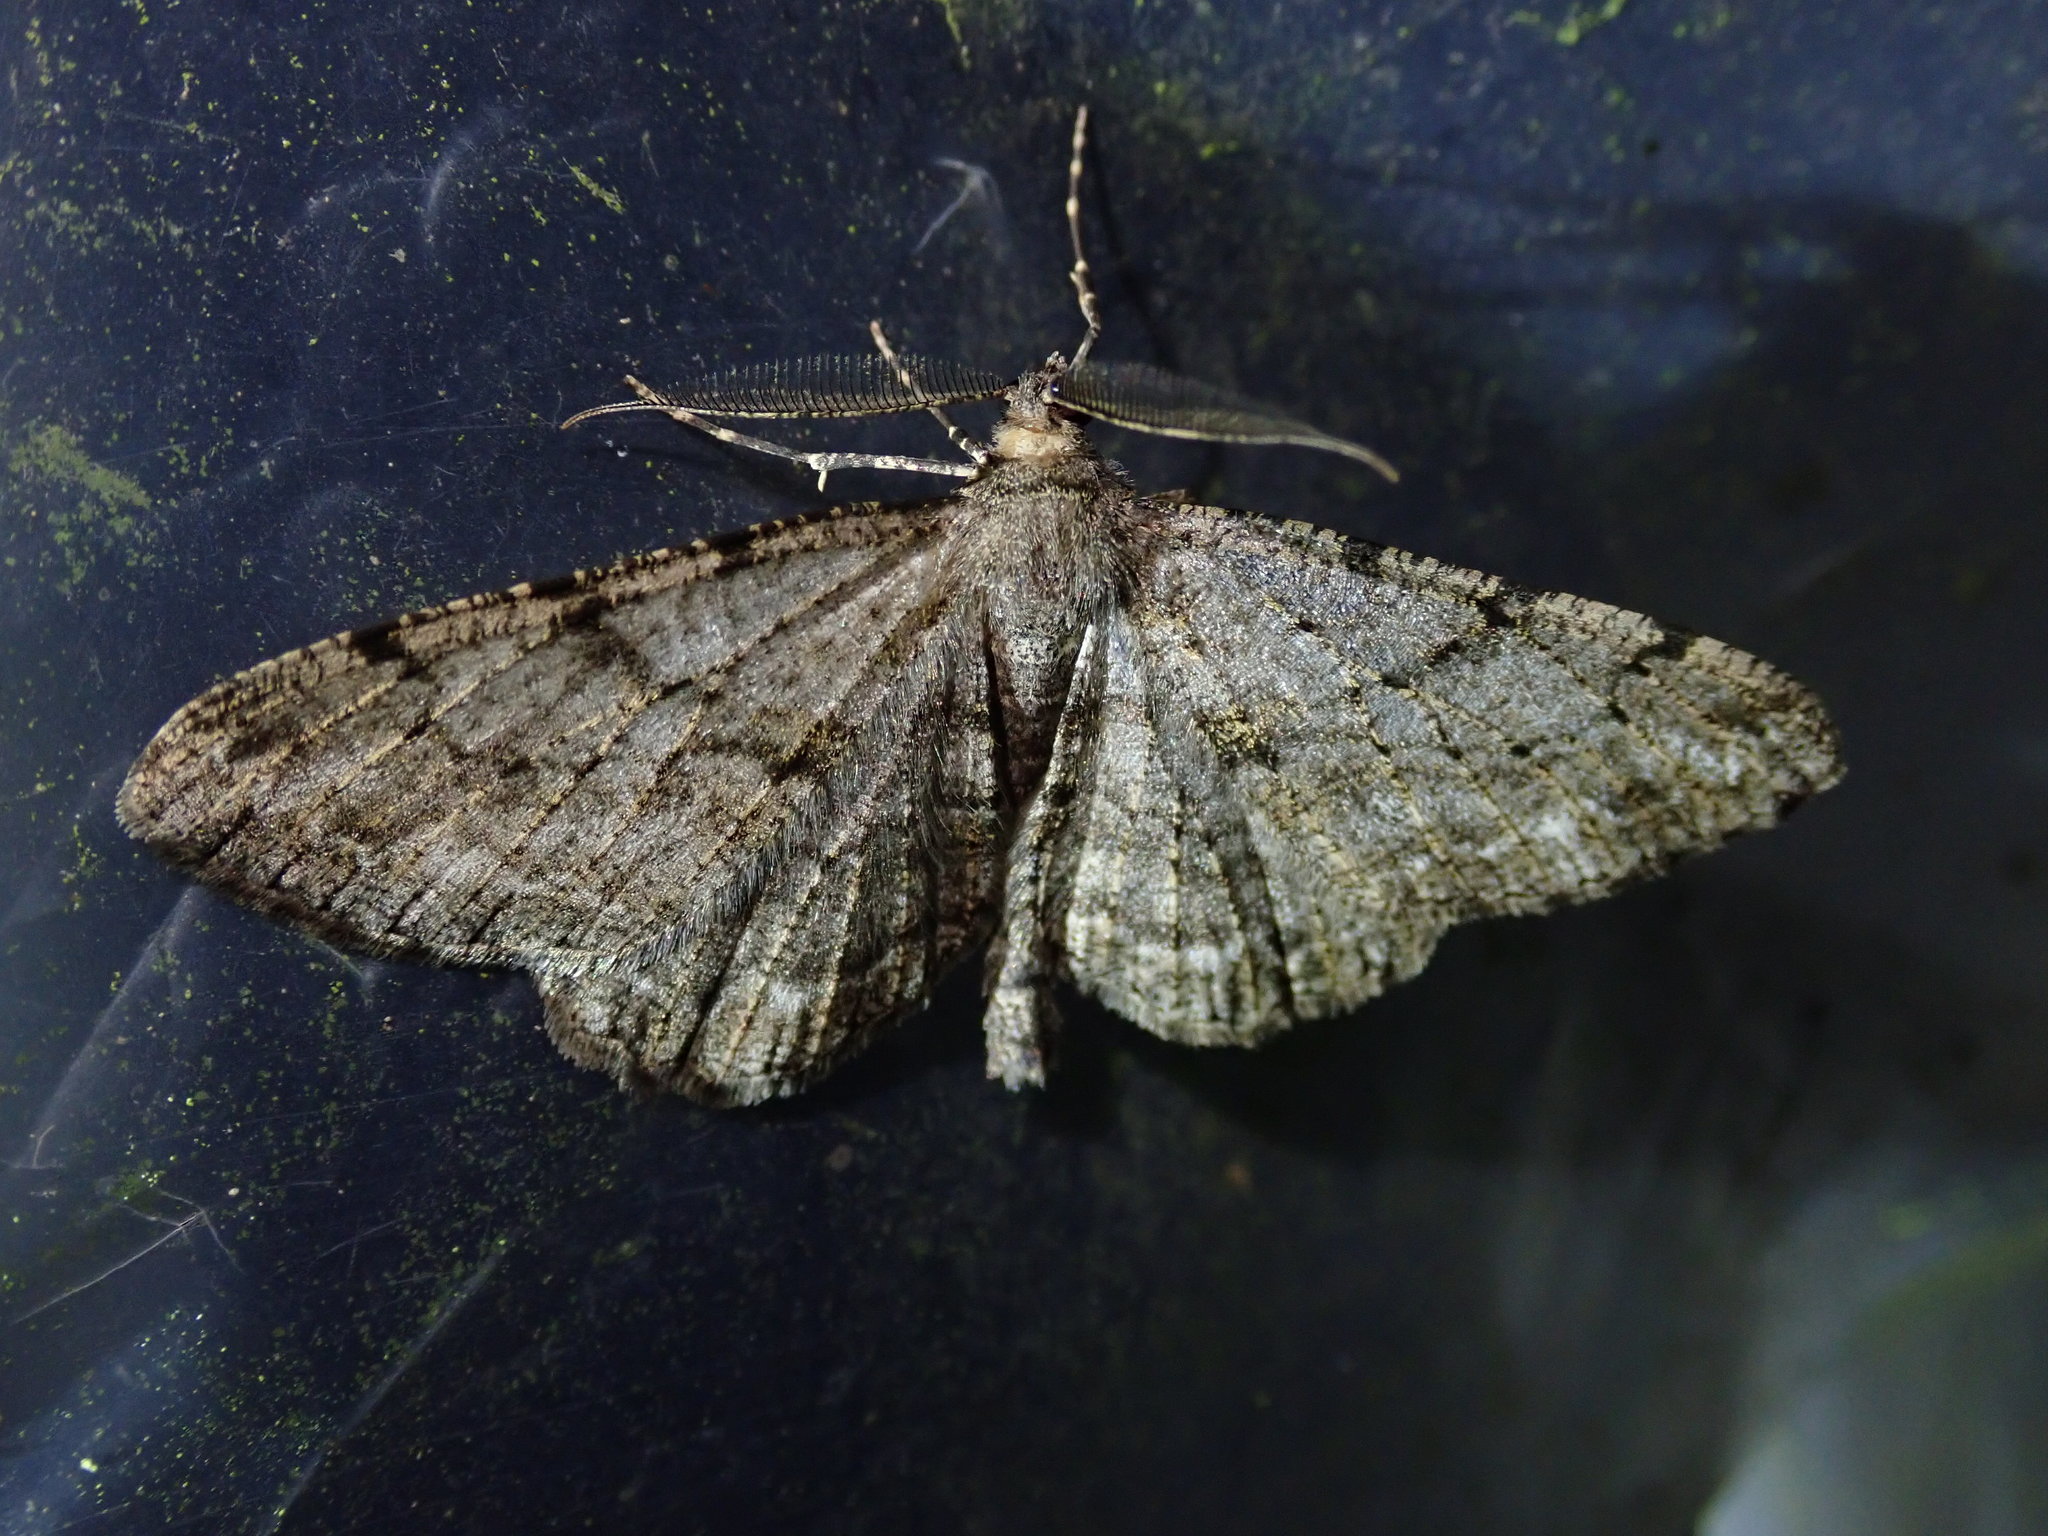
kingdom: Animalia
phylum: Arthropoda
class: Insecta
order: Lepidoptera
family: Geometridae
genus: Peribatodes
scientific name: Peribatodes rhomboidaria
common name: Willow beauty
